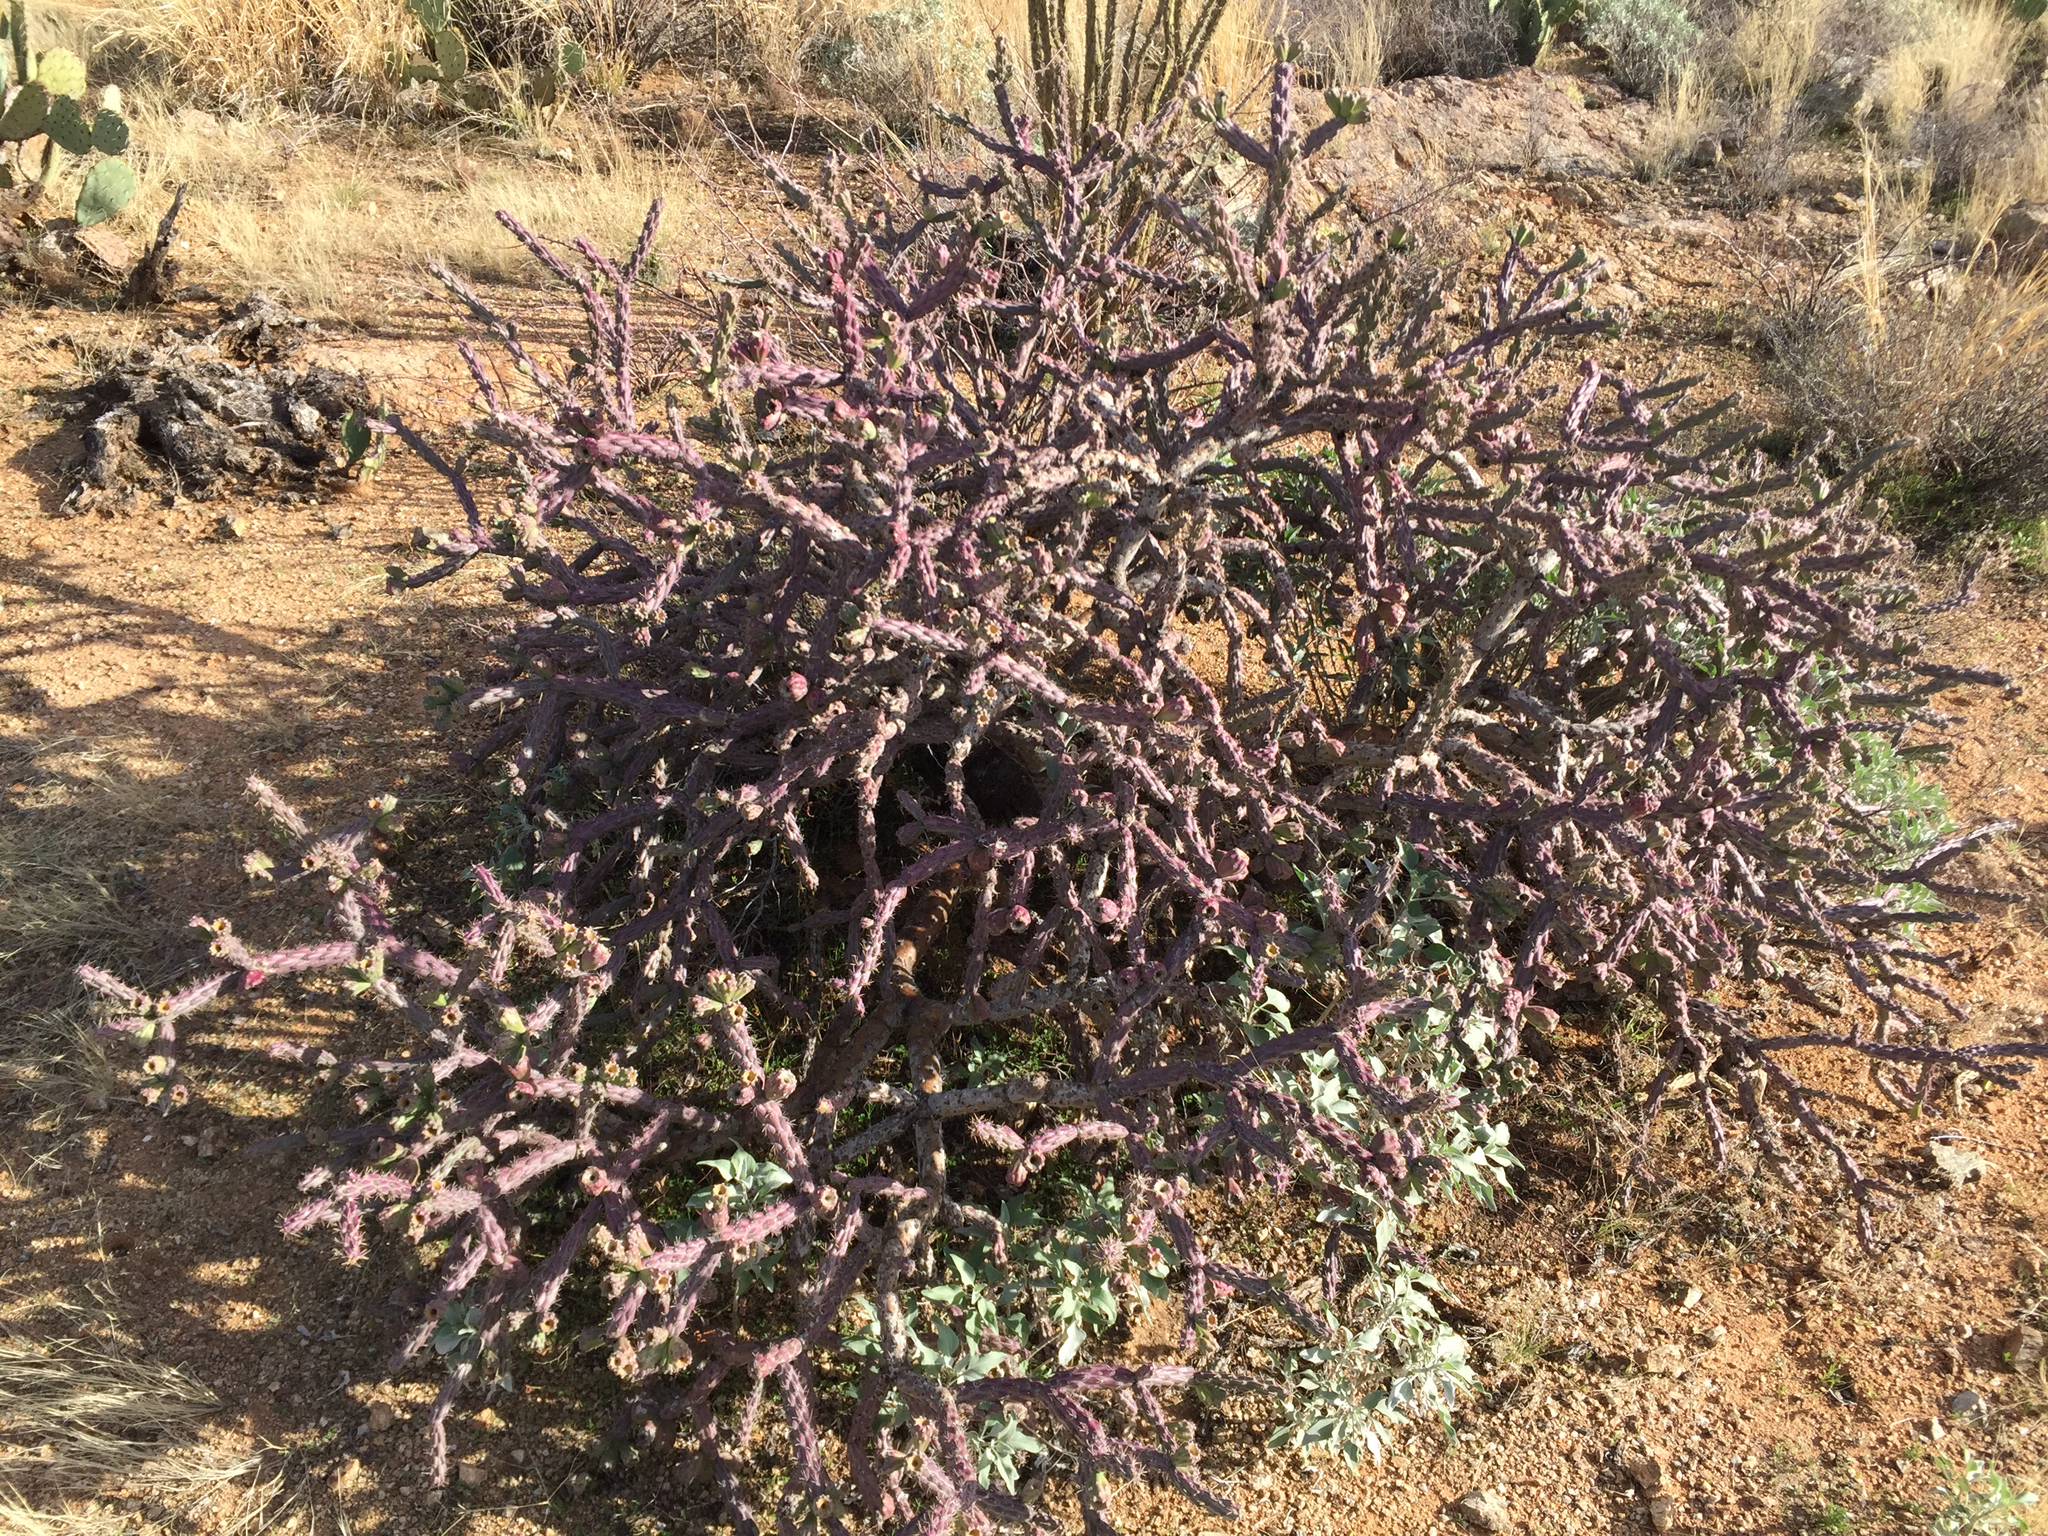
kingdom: Plantae
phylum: Tracheophyta
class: Magnoliopsida
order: Caryophyllales
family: Cactaceae
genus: Cylindropuntia
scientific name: Cylindropuntia thurberi
